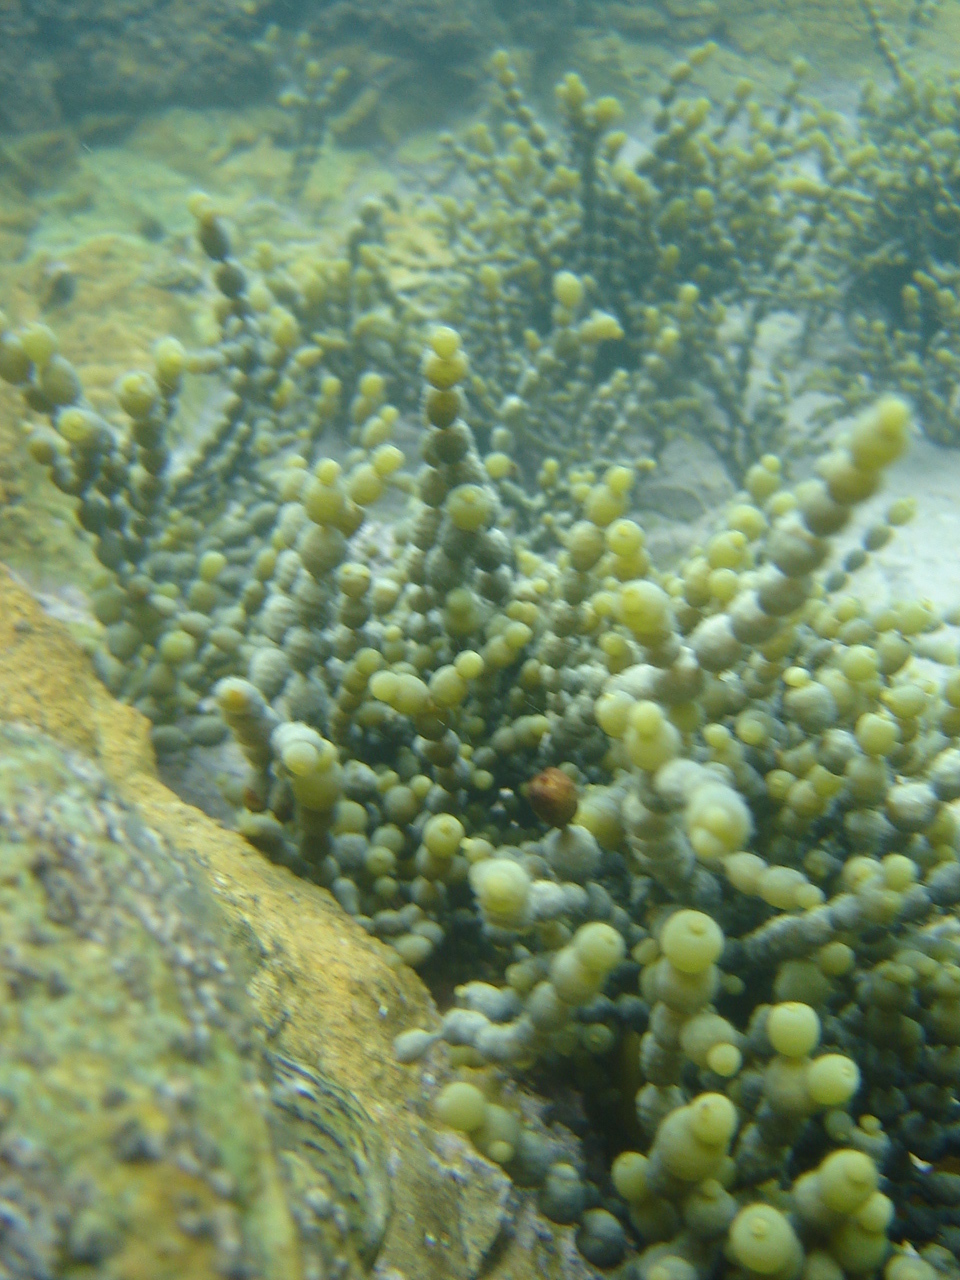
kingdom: Chromista
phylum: Ochrophyta
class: Phaeophyceae
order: Fucales
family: Hormosiraceae
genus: Hormosira
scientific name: Hormosira banksii
